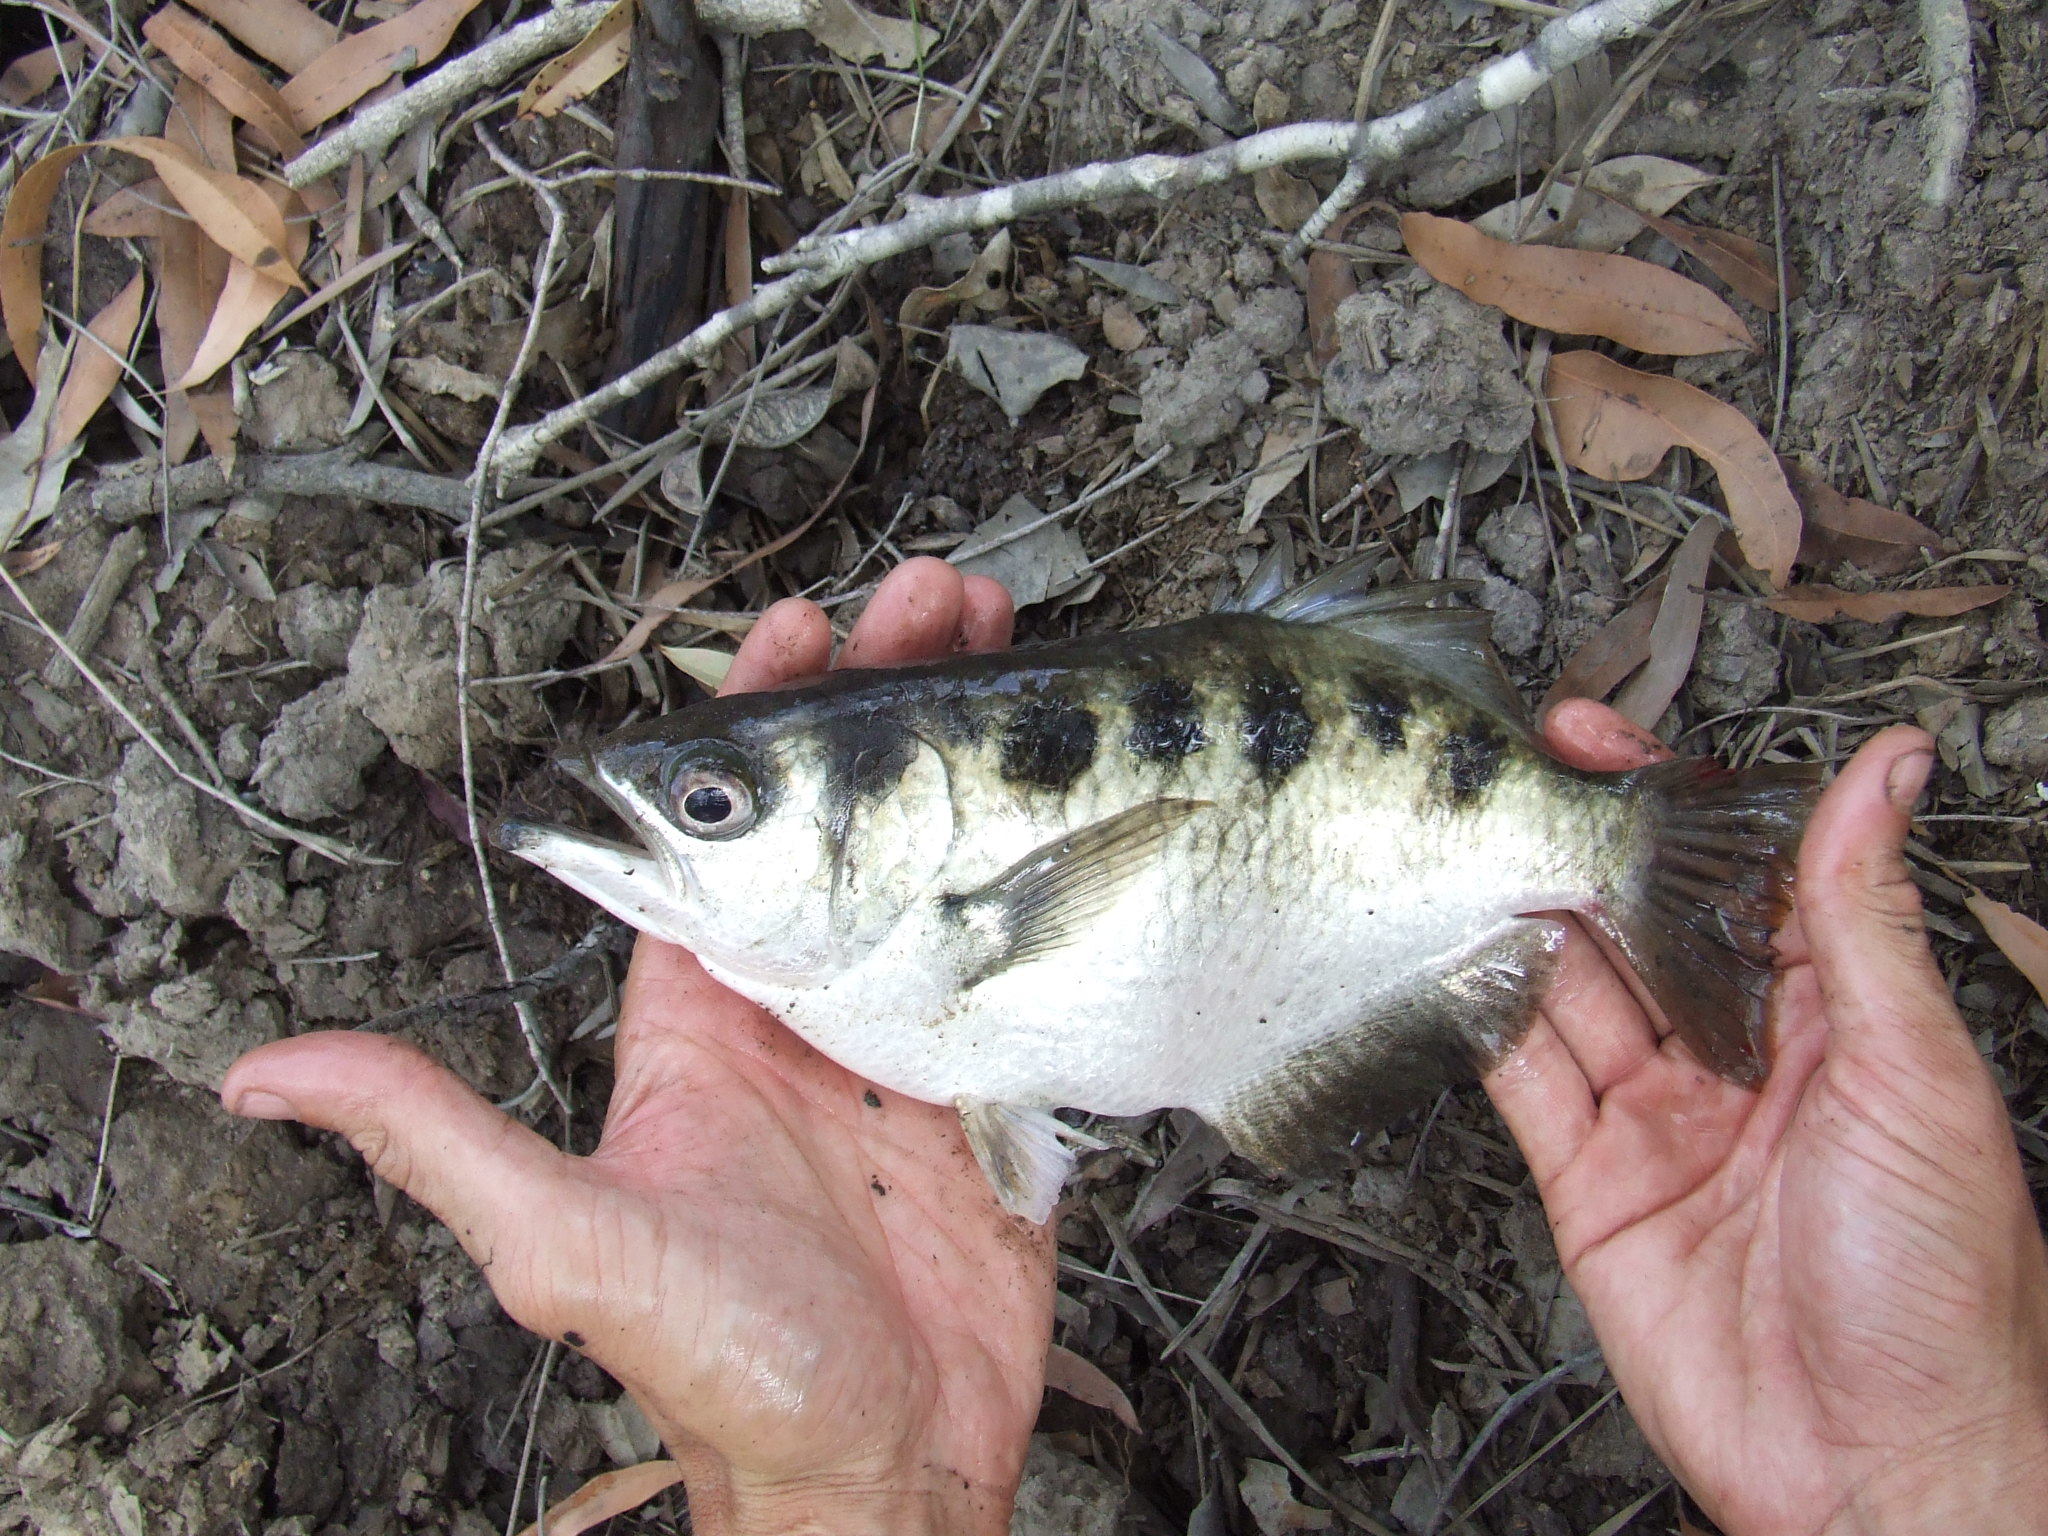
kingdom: Animalia
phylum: Chordata
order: Perciformes
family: Toxotidae
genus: Toxotes
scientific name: Toxotes chatareus
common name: Spotted archerfish
